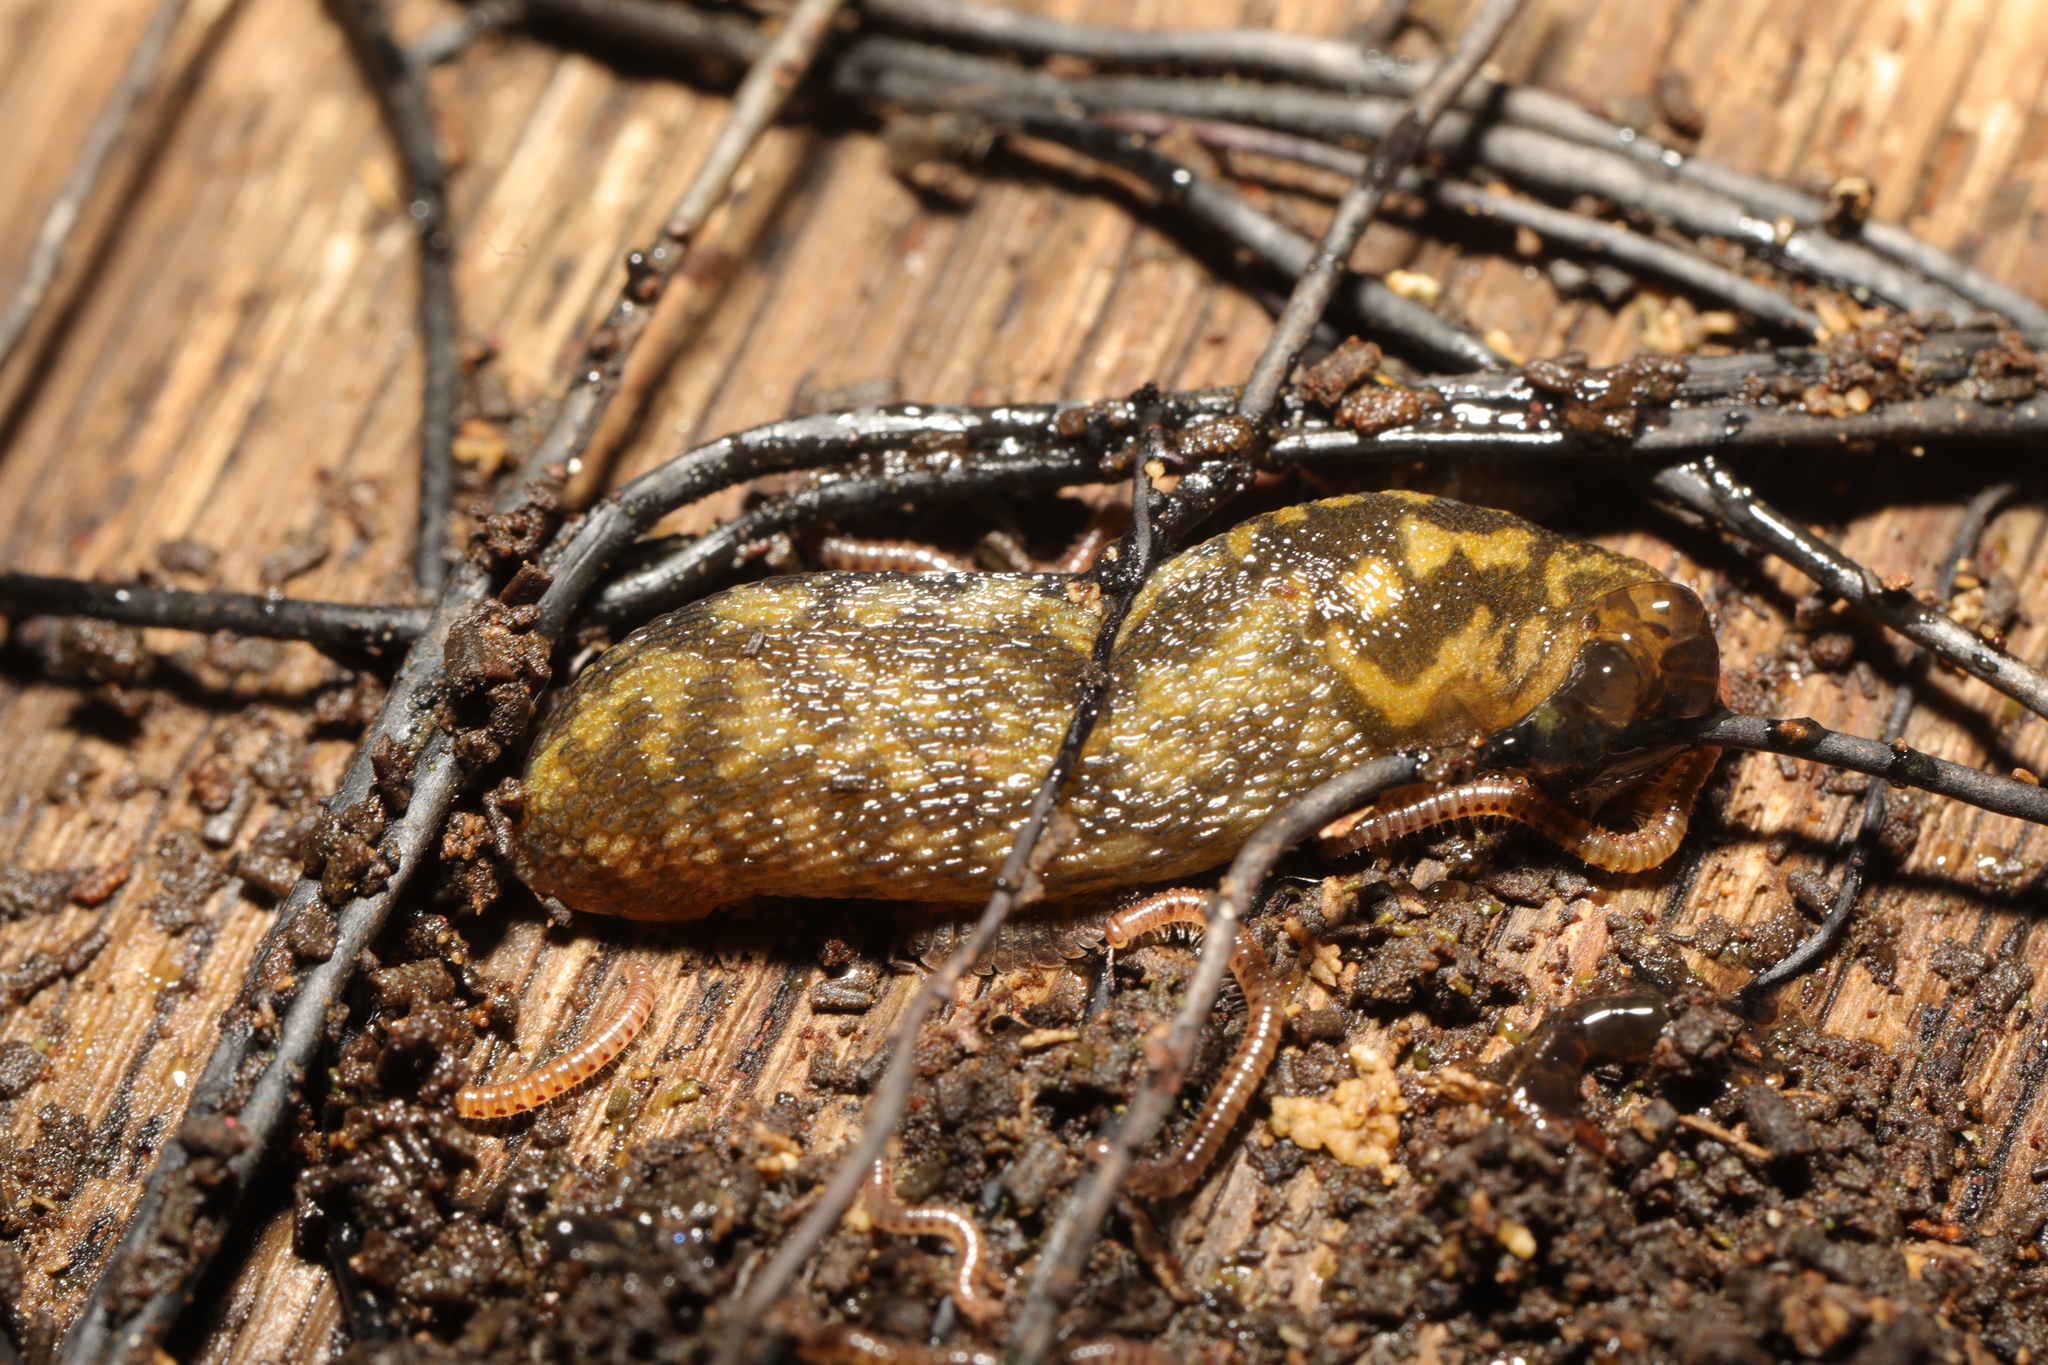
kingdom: Animalia
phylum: Mollusca
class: Gastropoda
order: Stylommatophora
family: Limacidae
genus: Limacus
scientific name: Limacus maculatus
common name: Irish yellow slug
